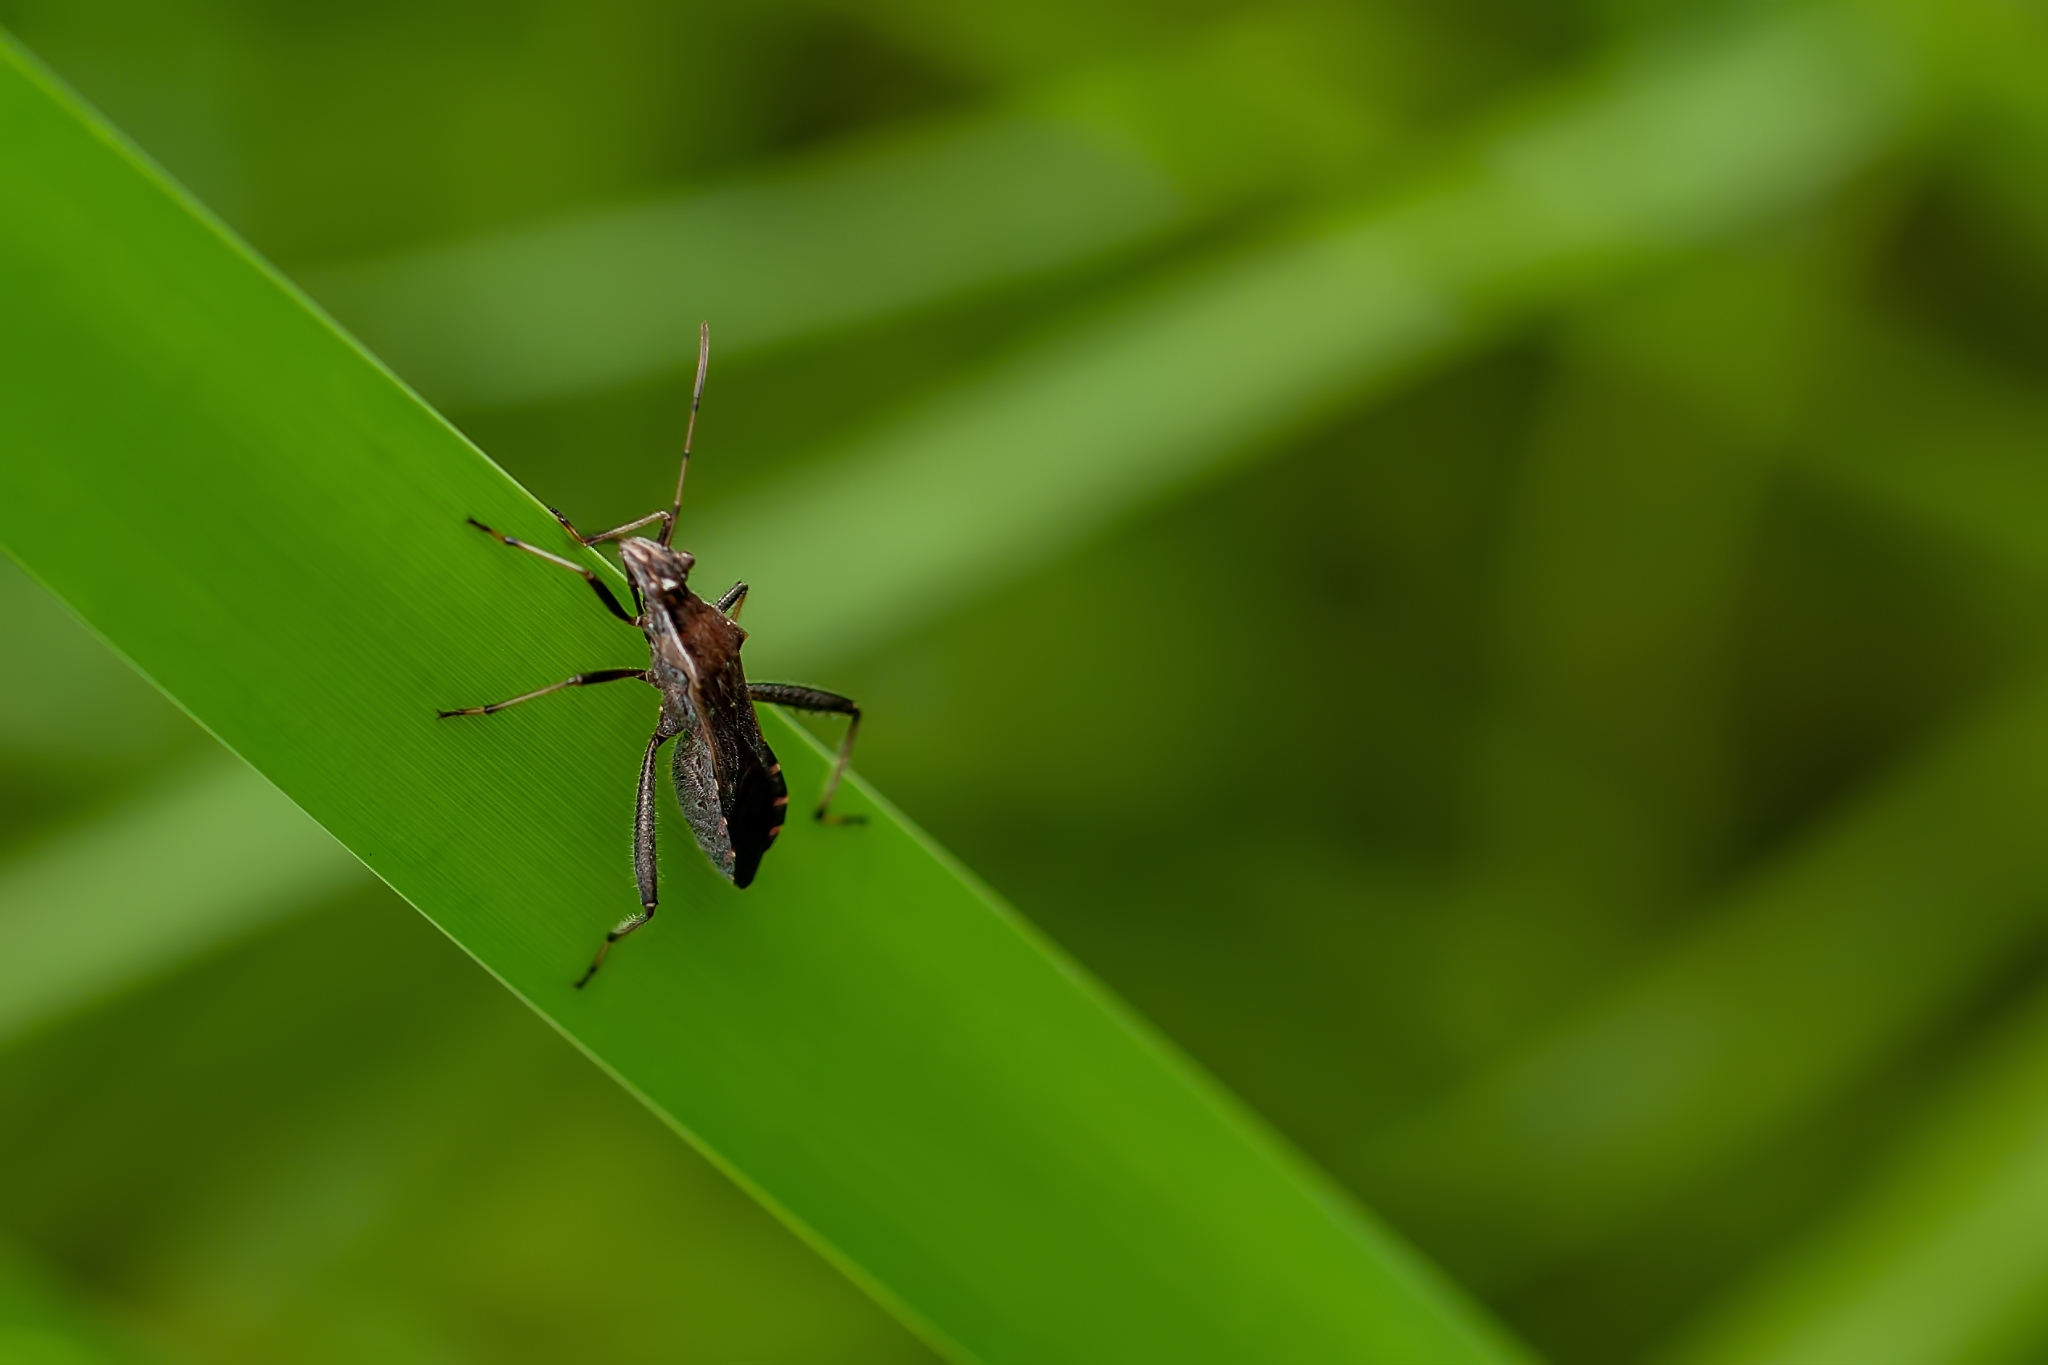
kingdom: Animalia
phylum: Arthropoda
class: Insecta
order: Hemiptera
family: Alydidae
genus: Alydus
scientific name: Alydus pilosulus
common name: Broad-headed bug
